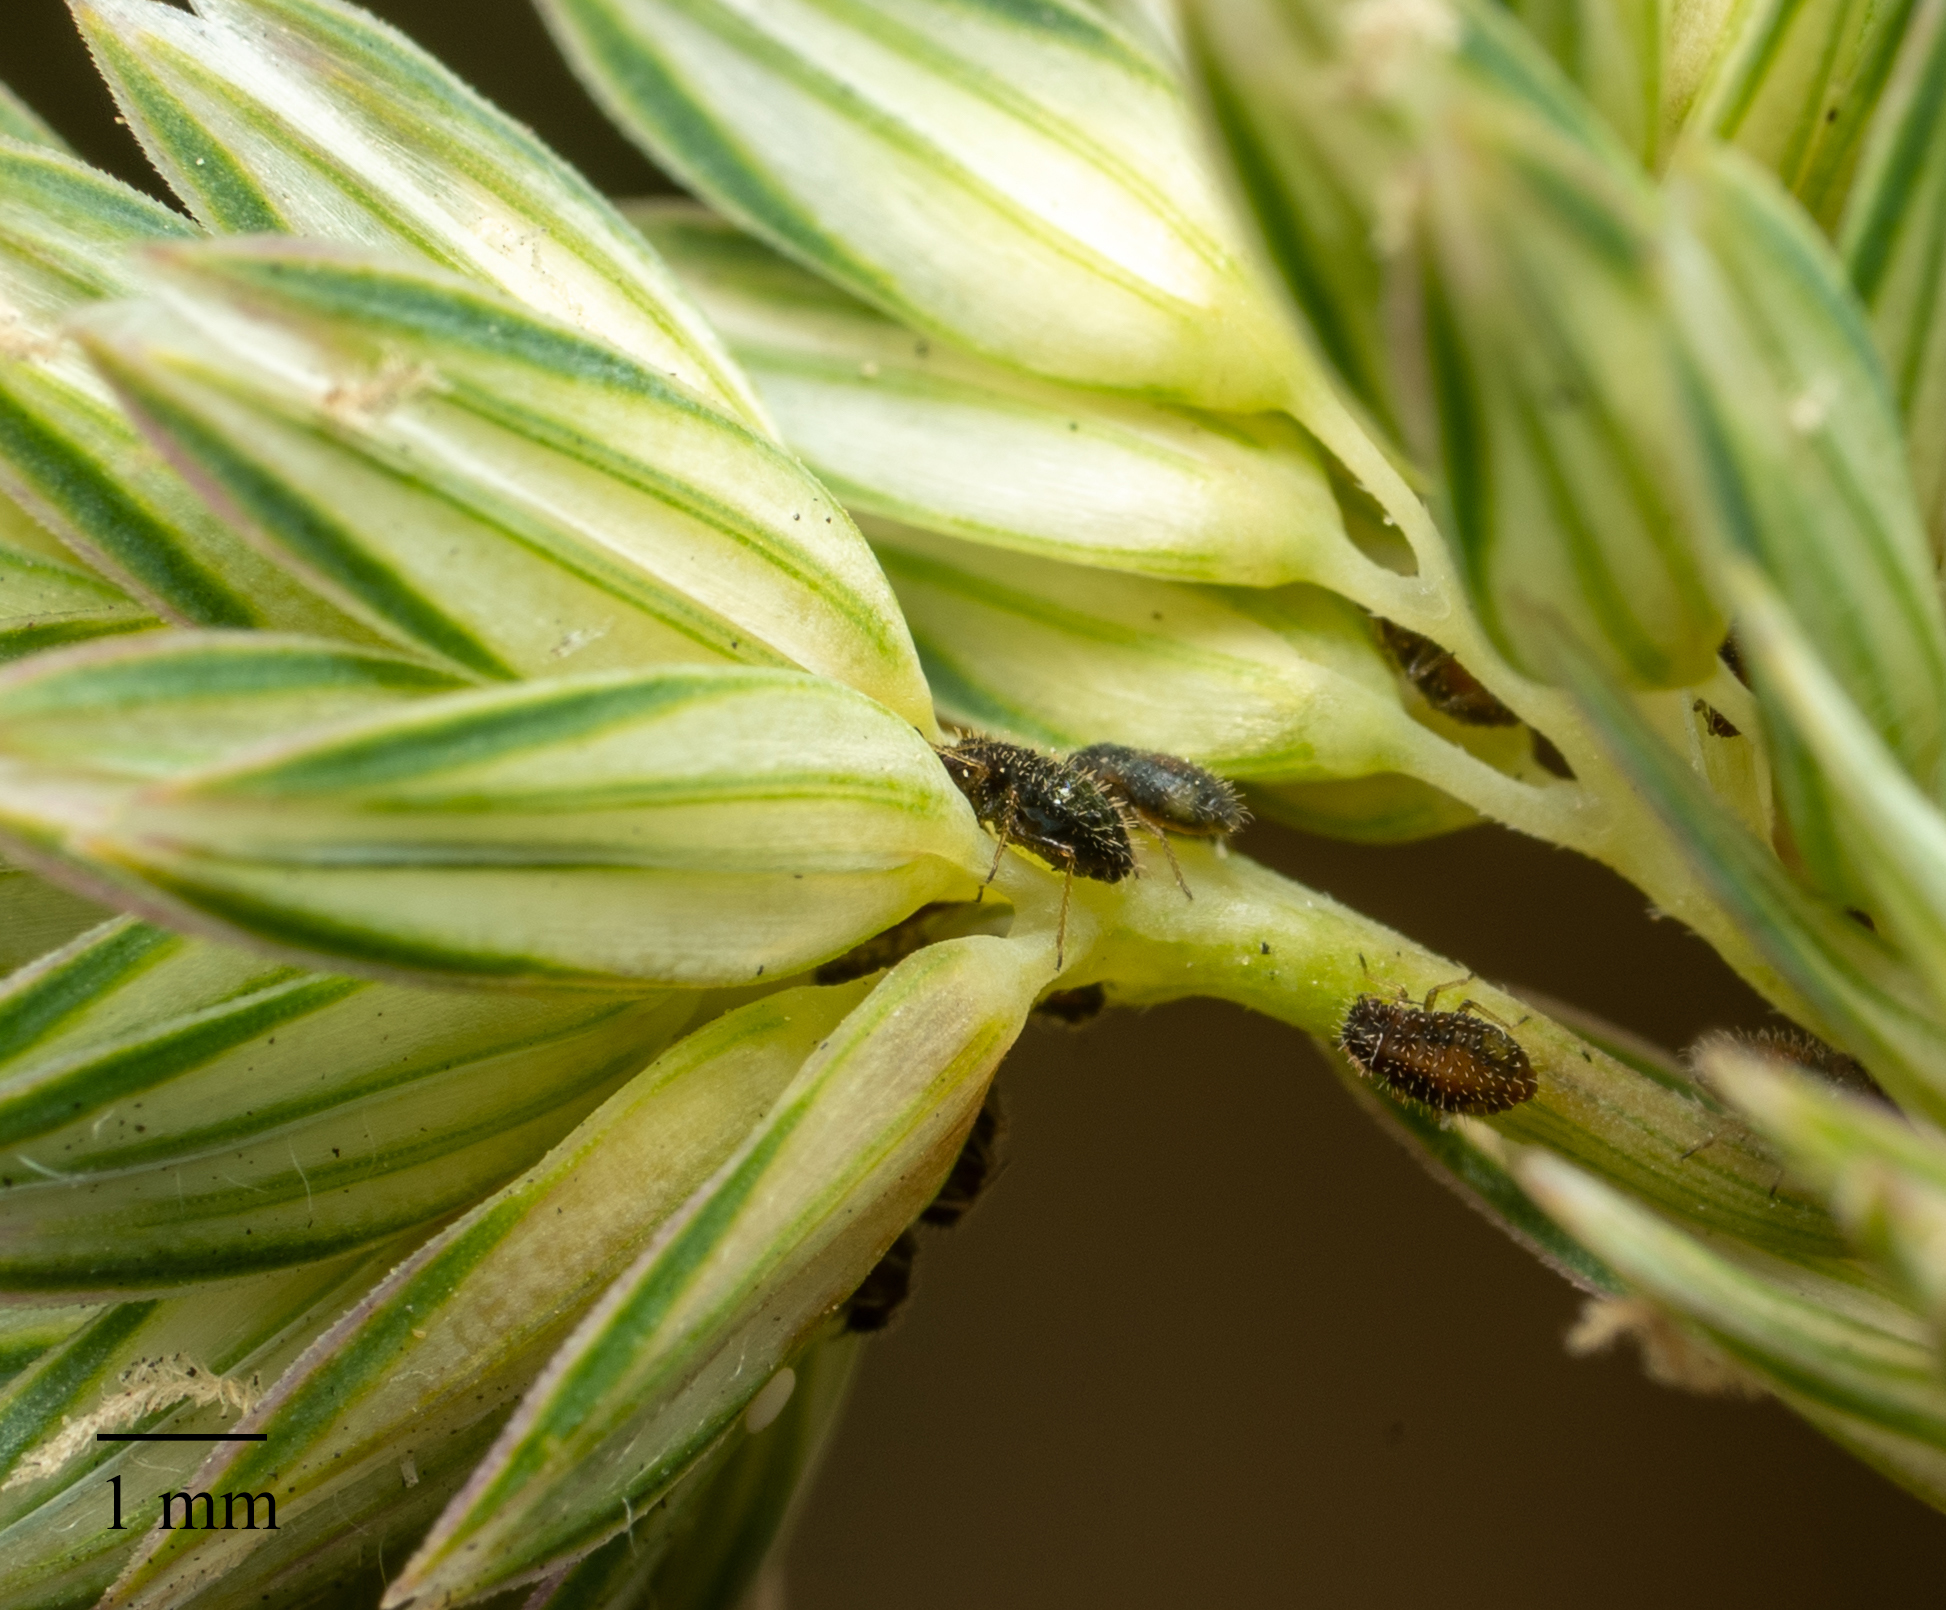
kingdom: Animalia
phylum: Arthropoda
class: Insecta
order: Hemiptera
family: Aphididae
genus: Sipha
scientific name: Sipha maydis
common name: Aphid
